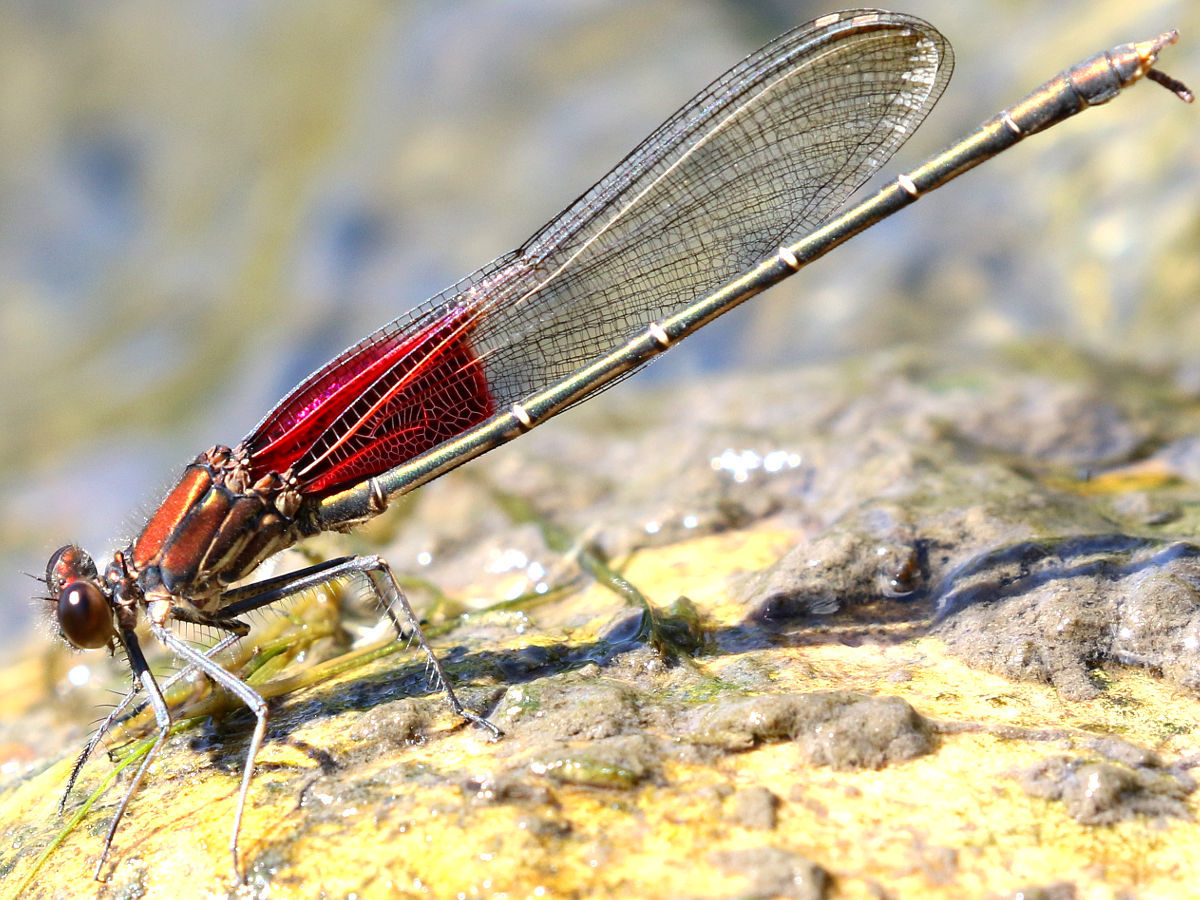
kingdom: Animalia
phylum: Arthropoda
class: Insecta
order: Odonata
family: Calopterygidae
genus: Hetaerina
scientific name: Hetaerina americana
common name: American rubyspot
